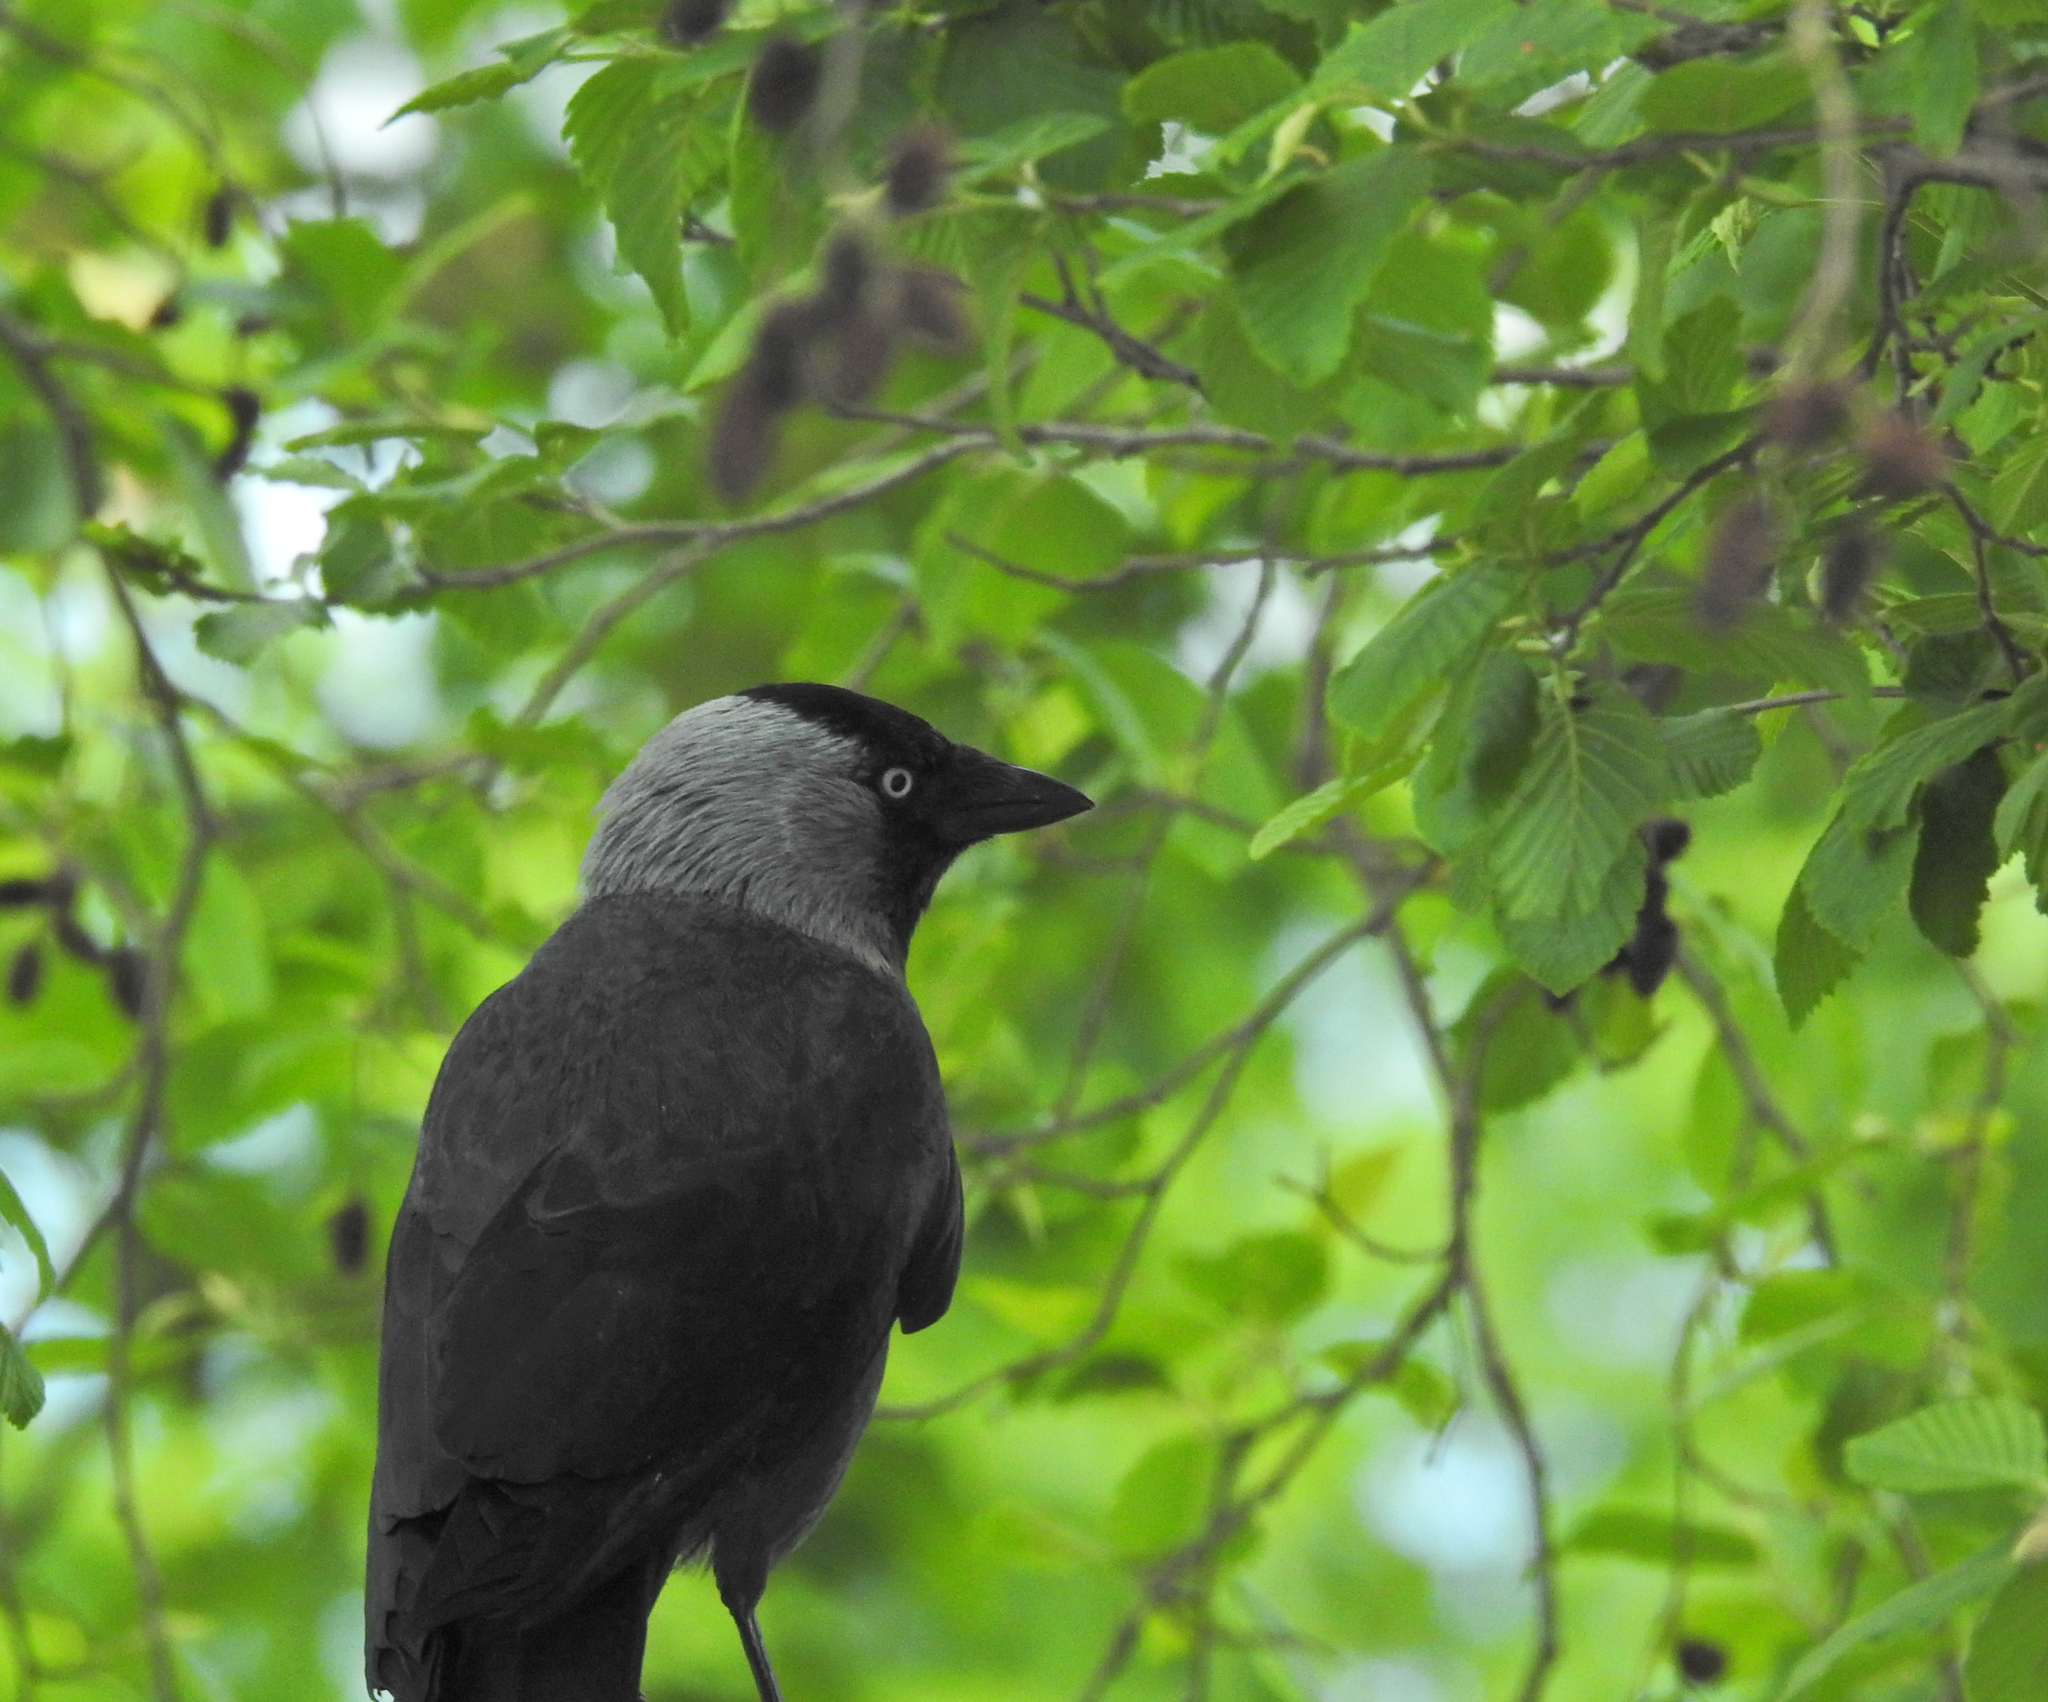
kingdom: Animalia
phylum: Chordata
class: Aves
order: Passeriformes
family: Corvidae
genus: Coloeus
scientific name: Coloeus monedula
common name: Western jackdaw
